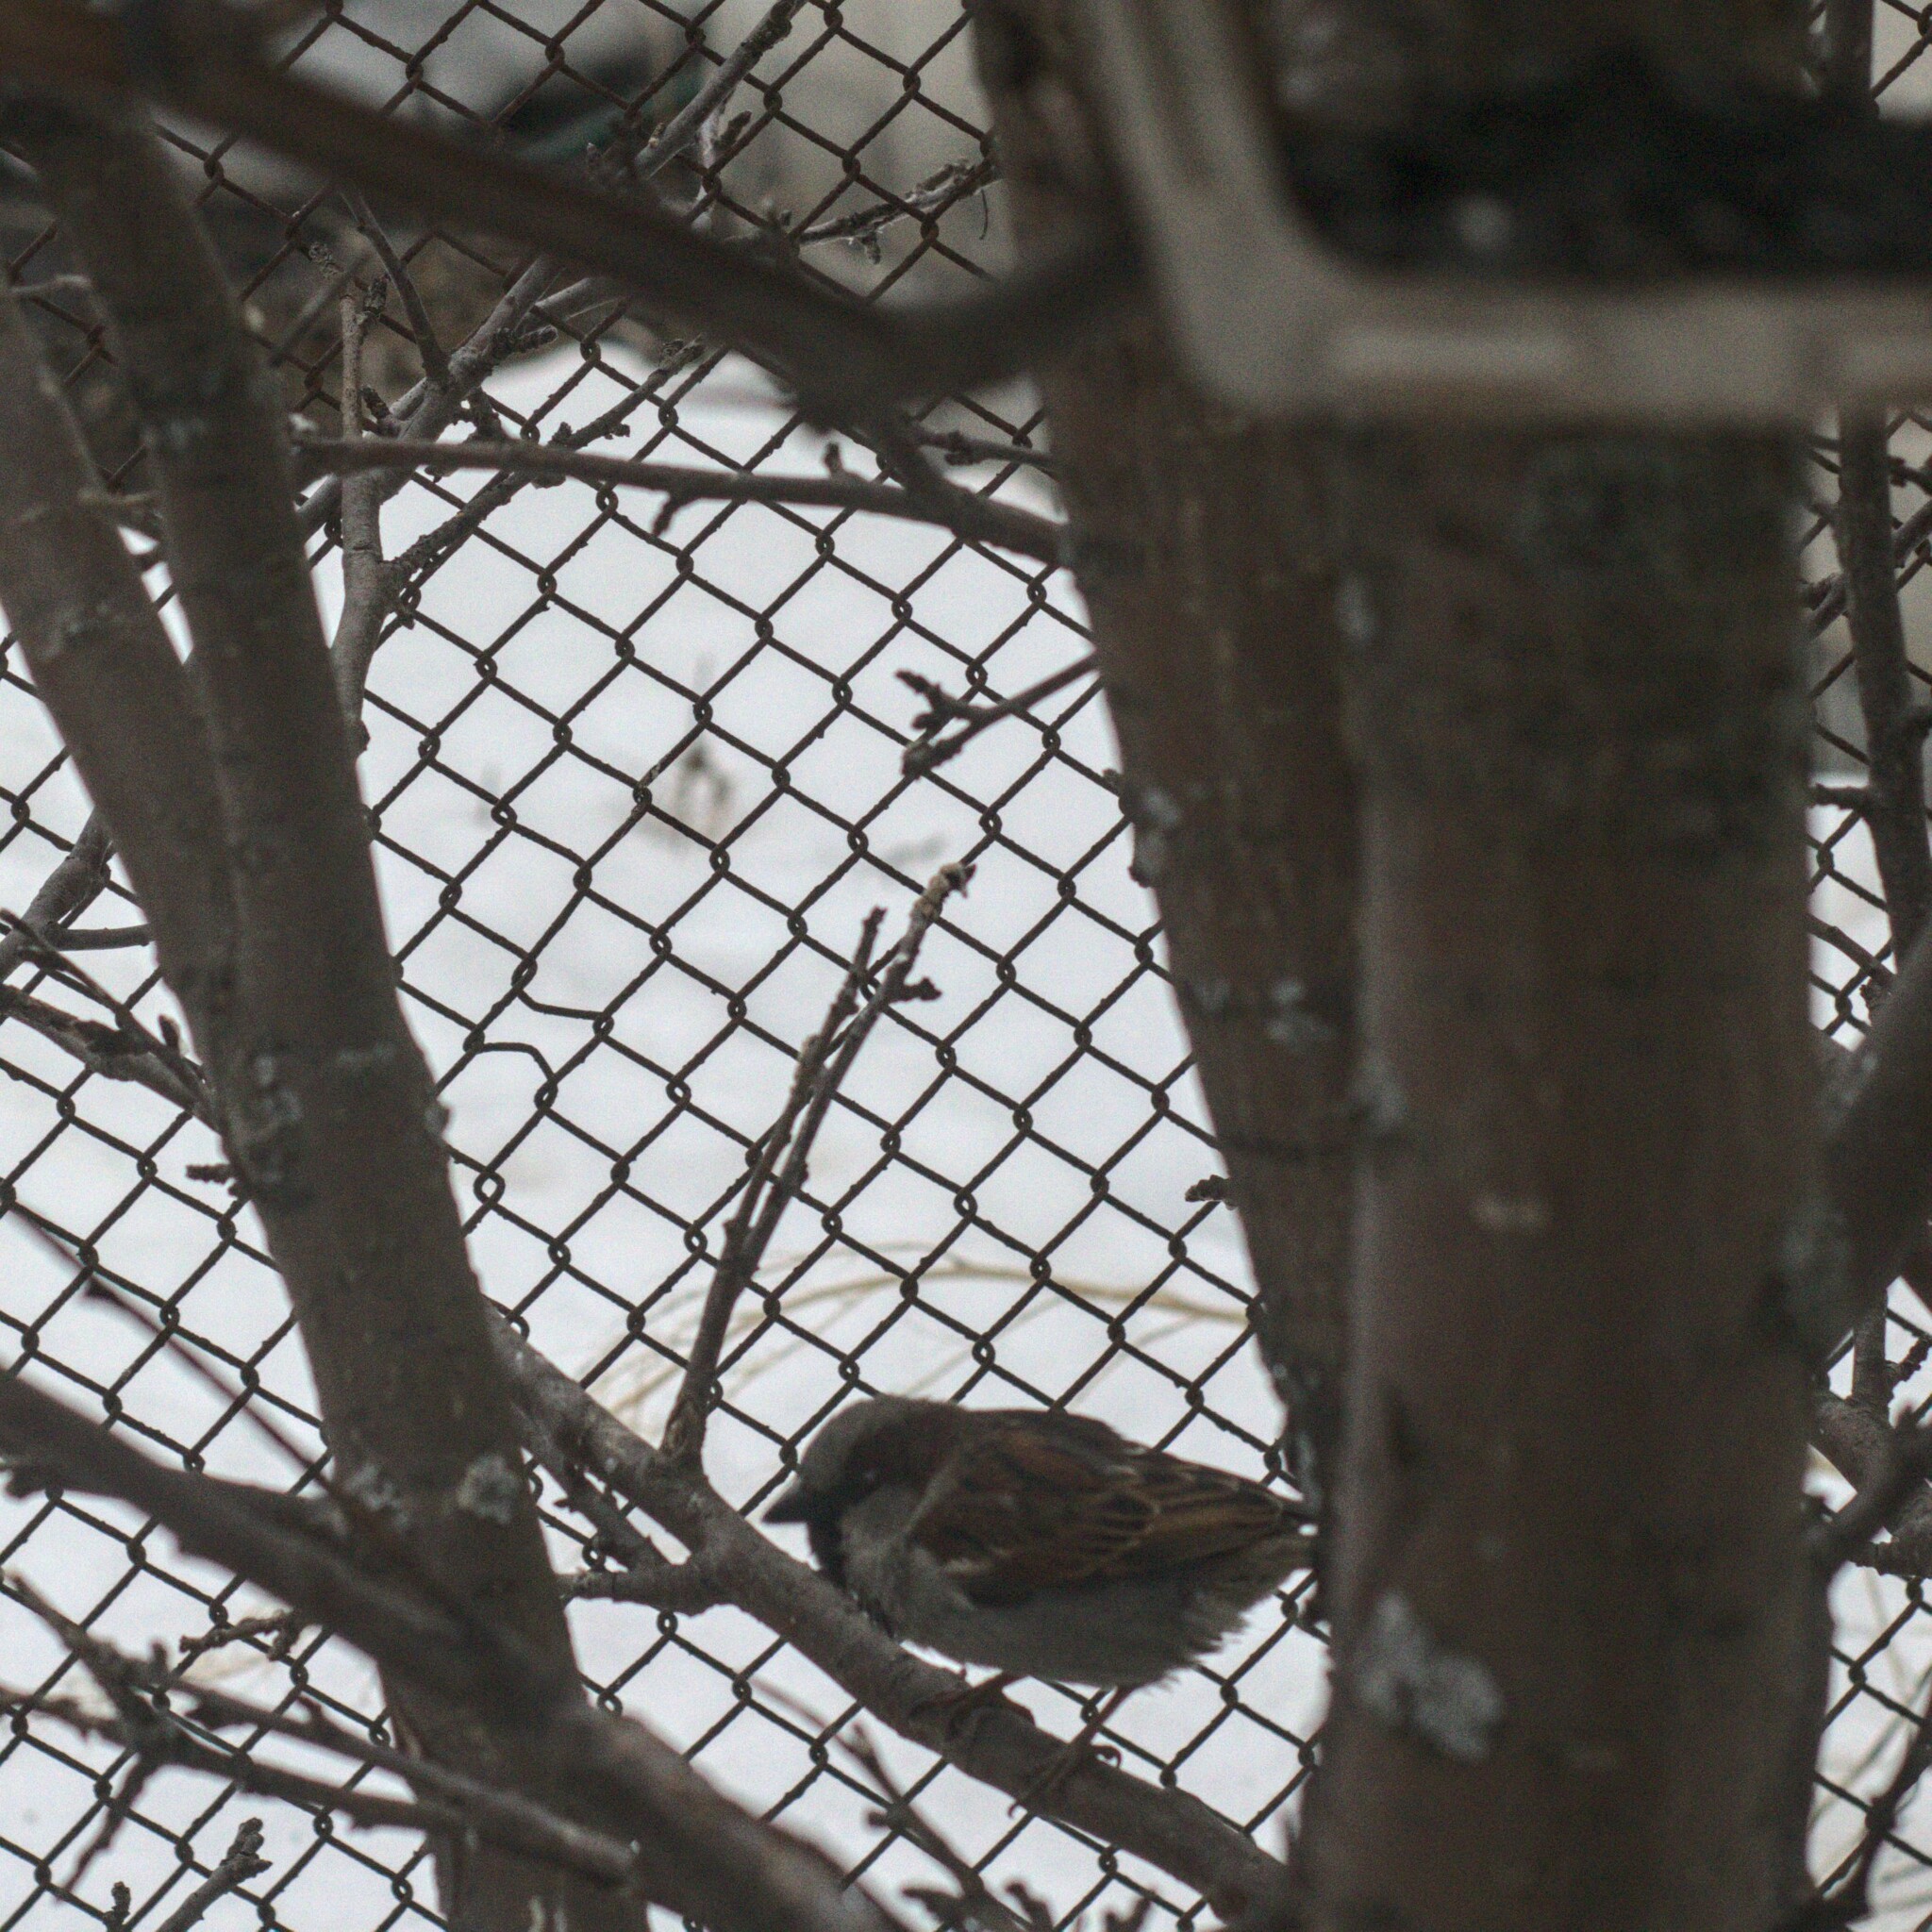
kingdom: Animalia
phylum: Chordata
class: Aves
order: Passeriformes
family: Passeridae
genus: Passer
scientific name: Passer domesticus
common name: House sparrow
